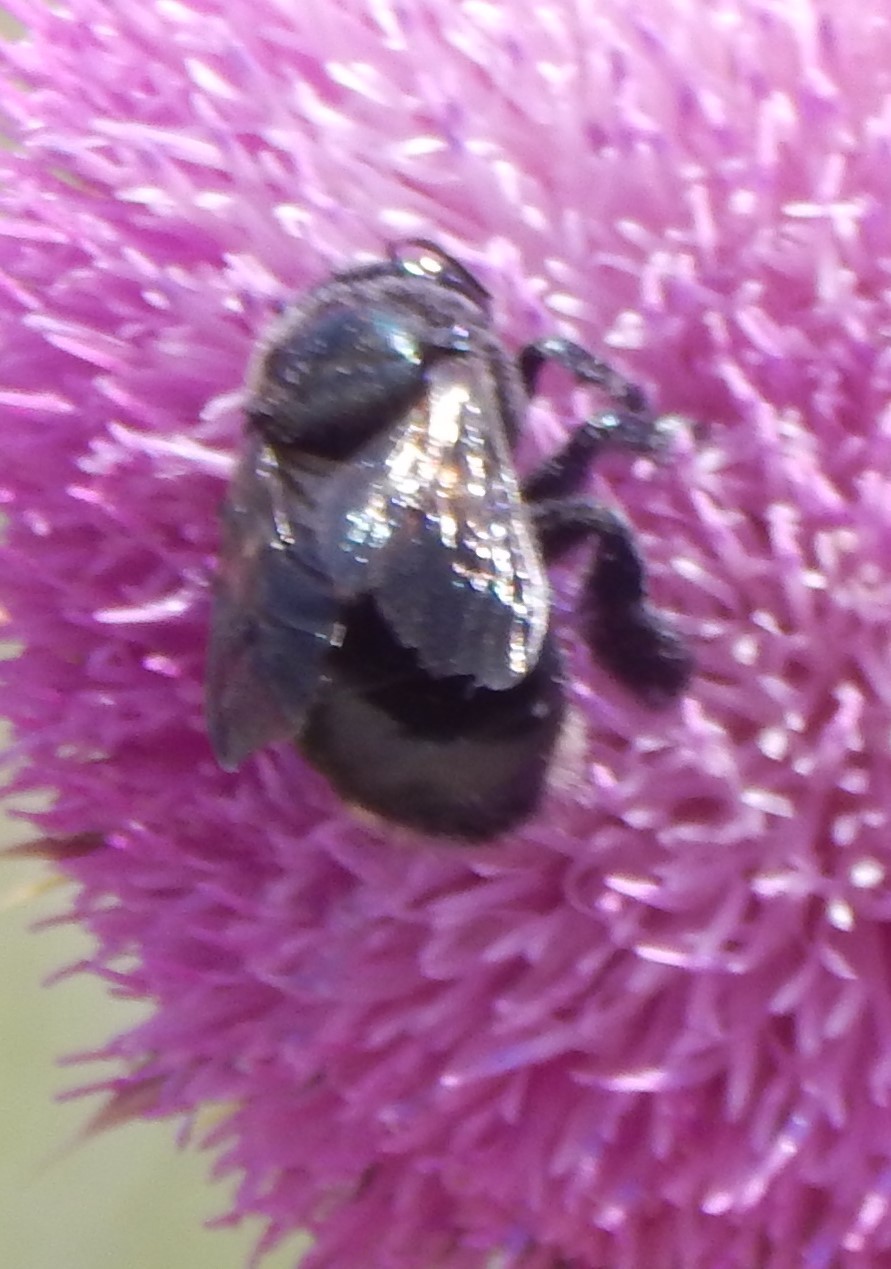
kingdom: Animalia
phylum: Arthropoda
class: Insecta
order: Hymenoptera
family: Apidae
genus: Xylocopa
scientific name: Xylocopa micans
